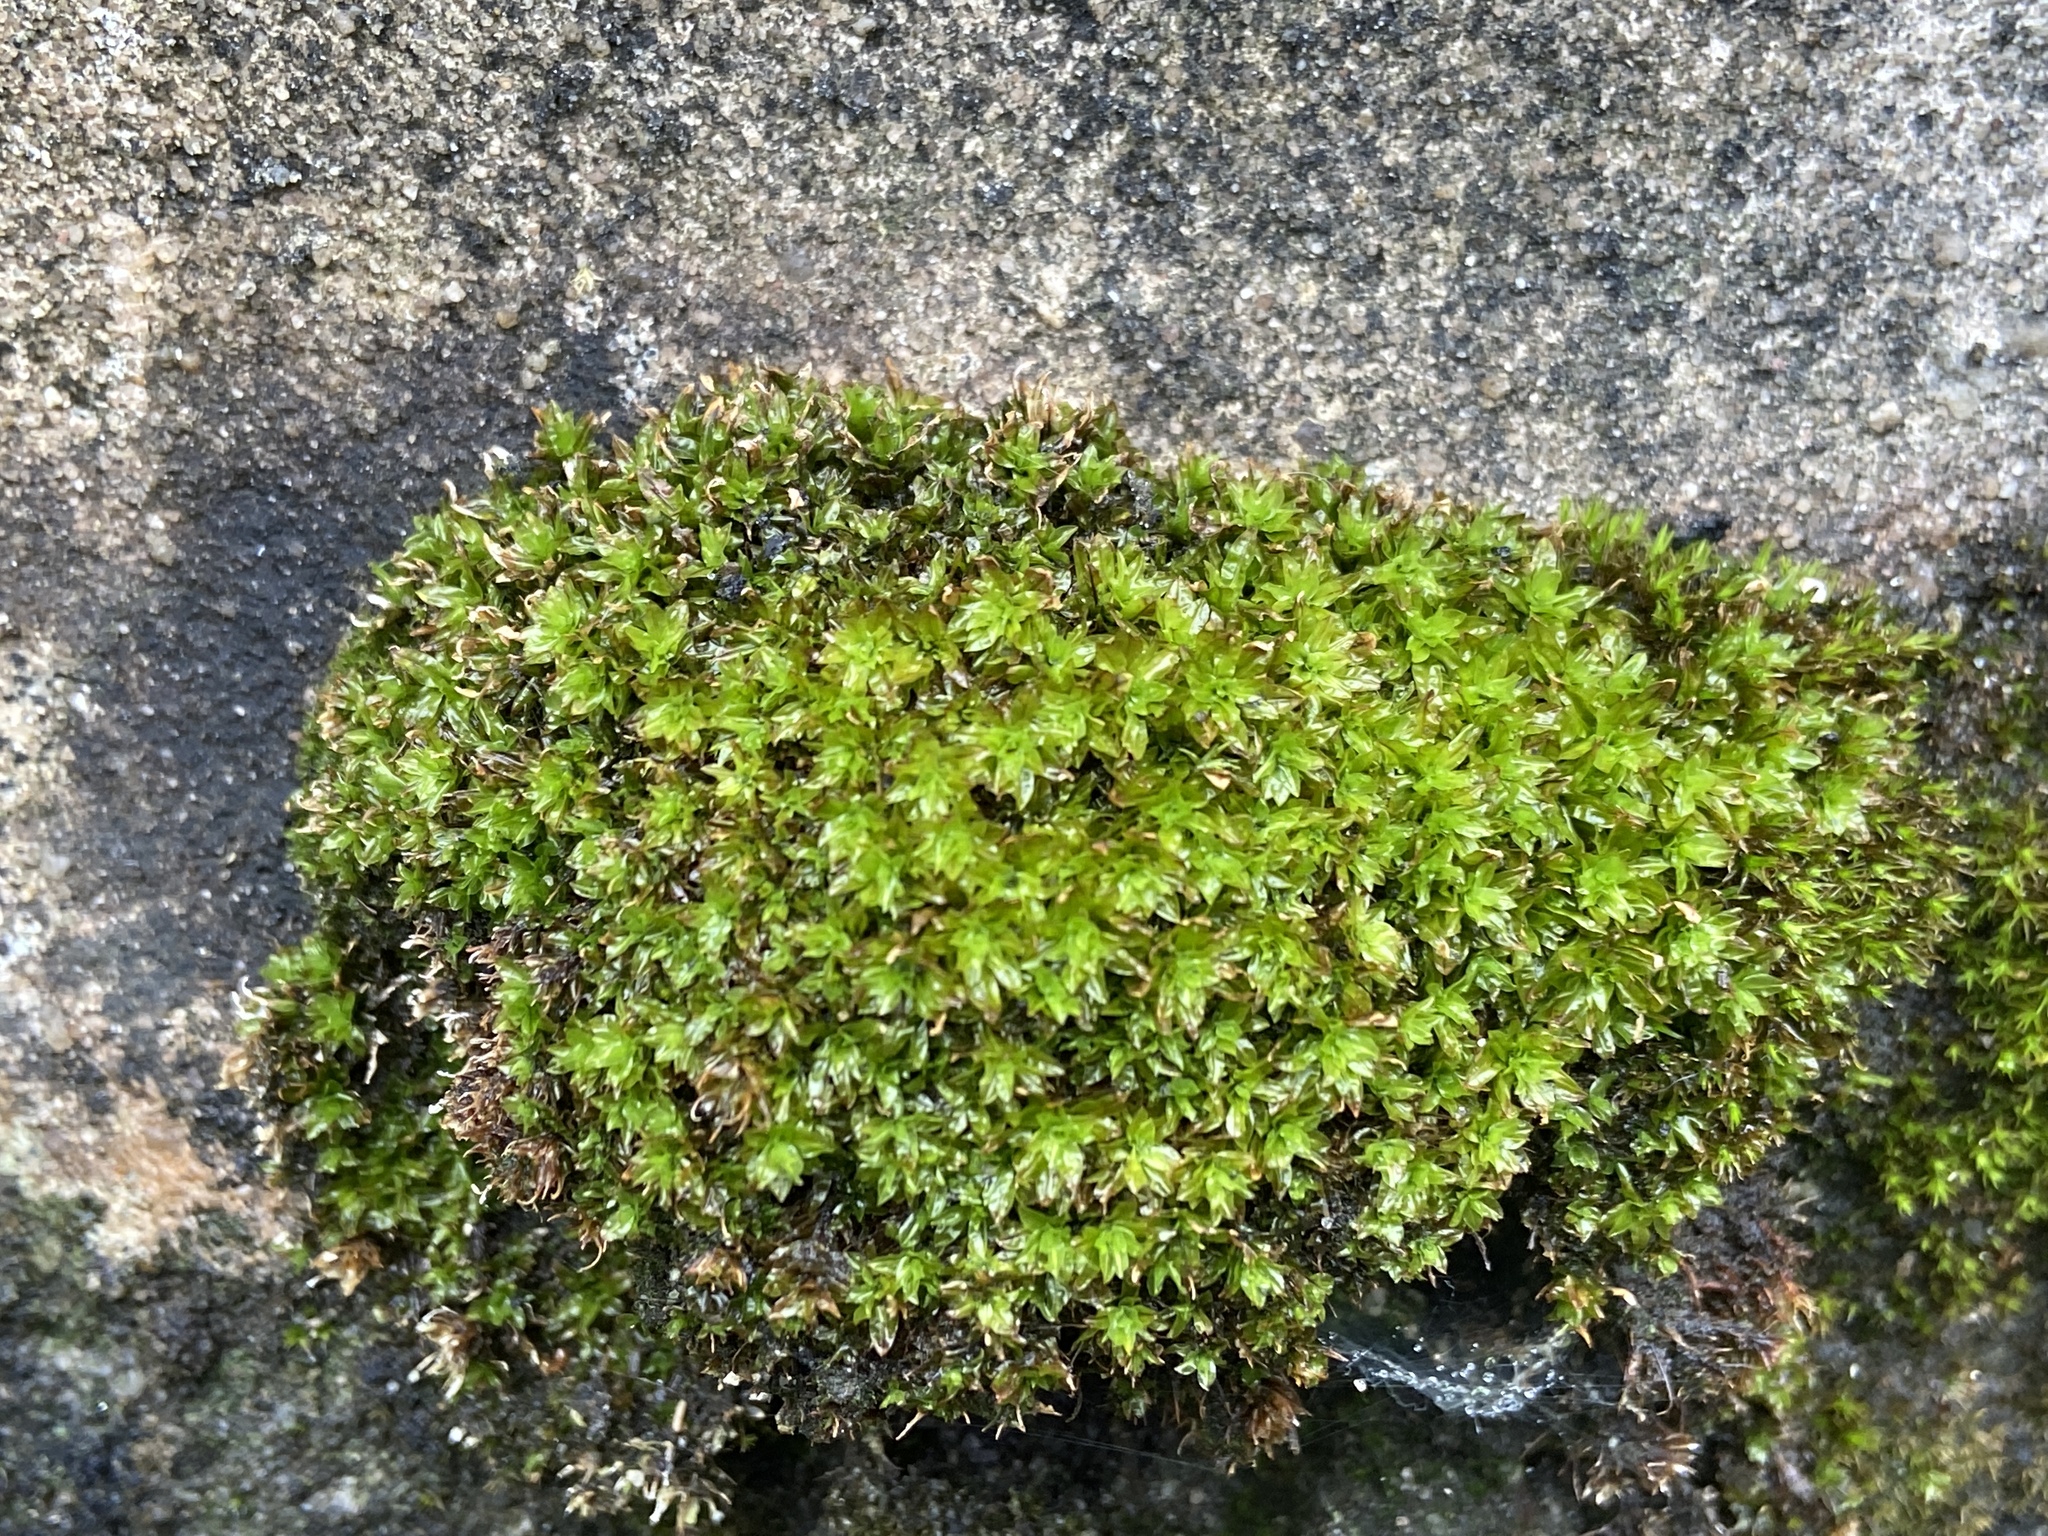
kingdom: Plantae
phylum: Bryophyta
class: Bryopsida
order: Encalyptales
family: Encalyptaceae
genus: Encalypta
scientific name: Encalypta streptocarpa
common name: Spiral extinguisher-moss
